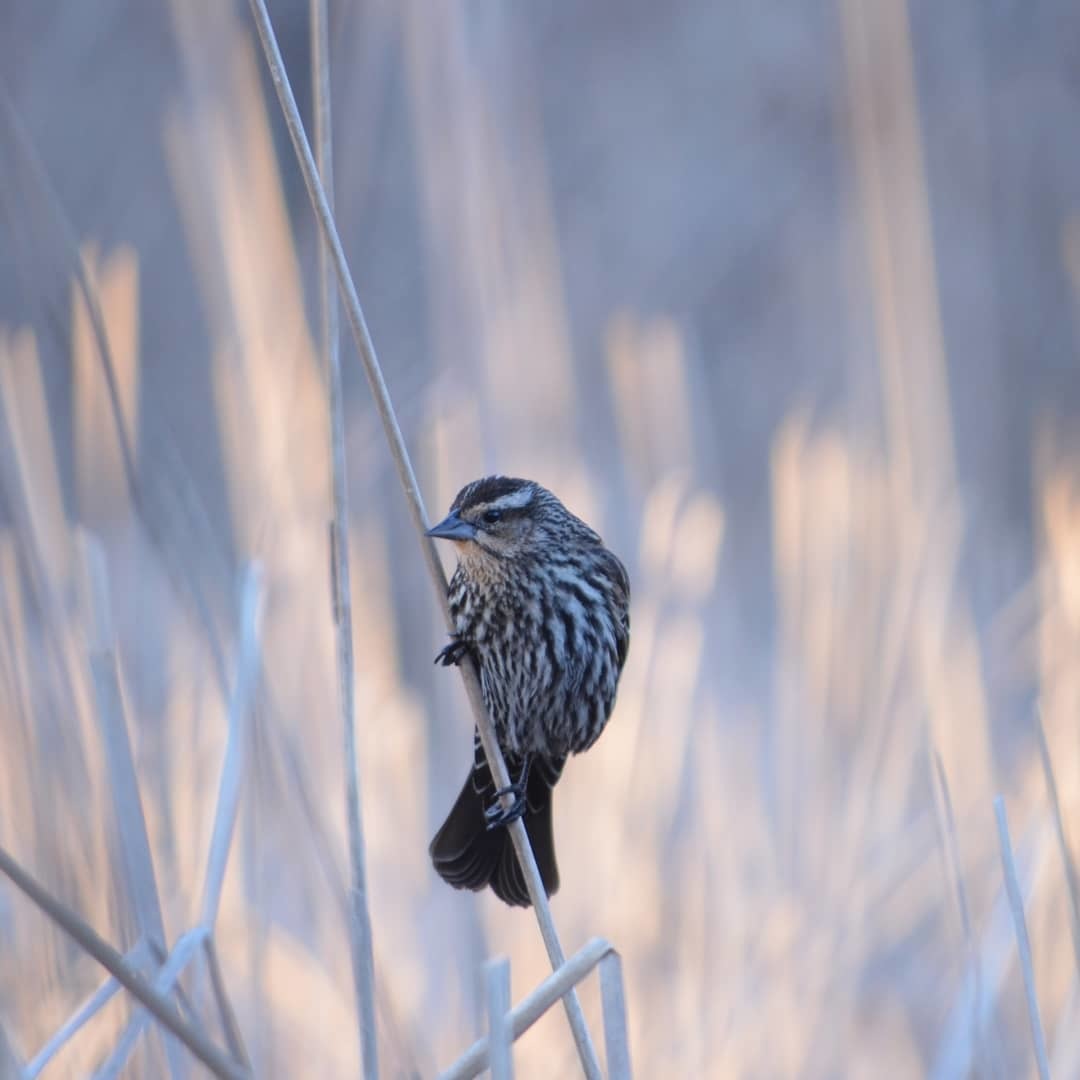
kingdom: Animalia
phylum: Chordata
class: Aves
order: Passeriformes
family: Icteridae
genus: Agelaius
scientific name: Agelaius phoeniceus
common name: Red-winged blackbird
